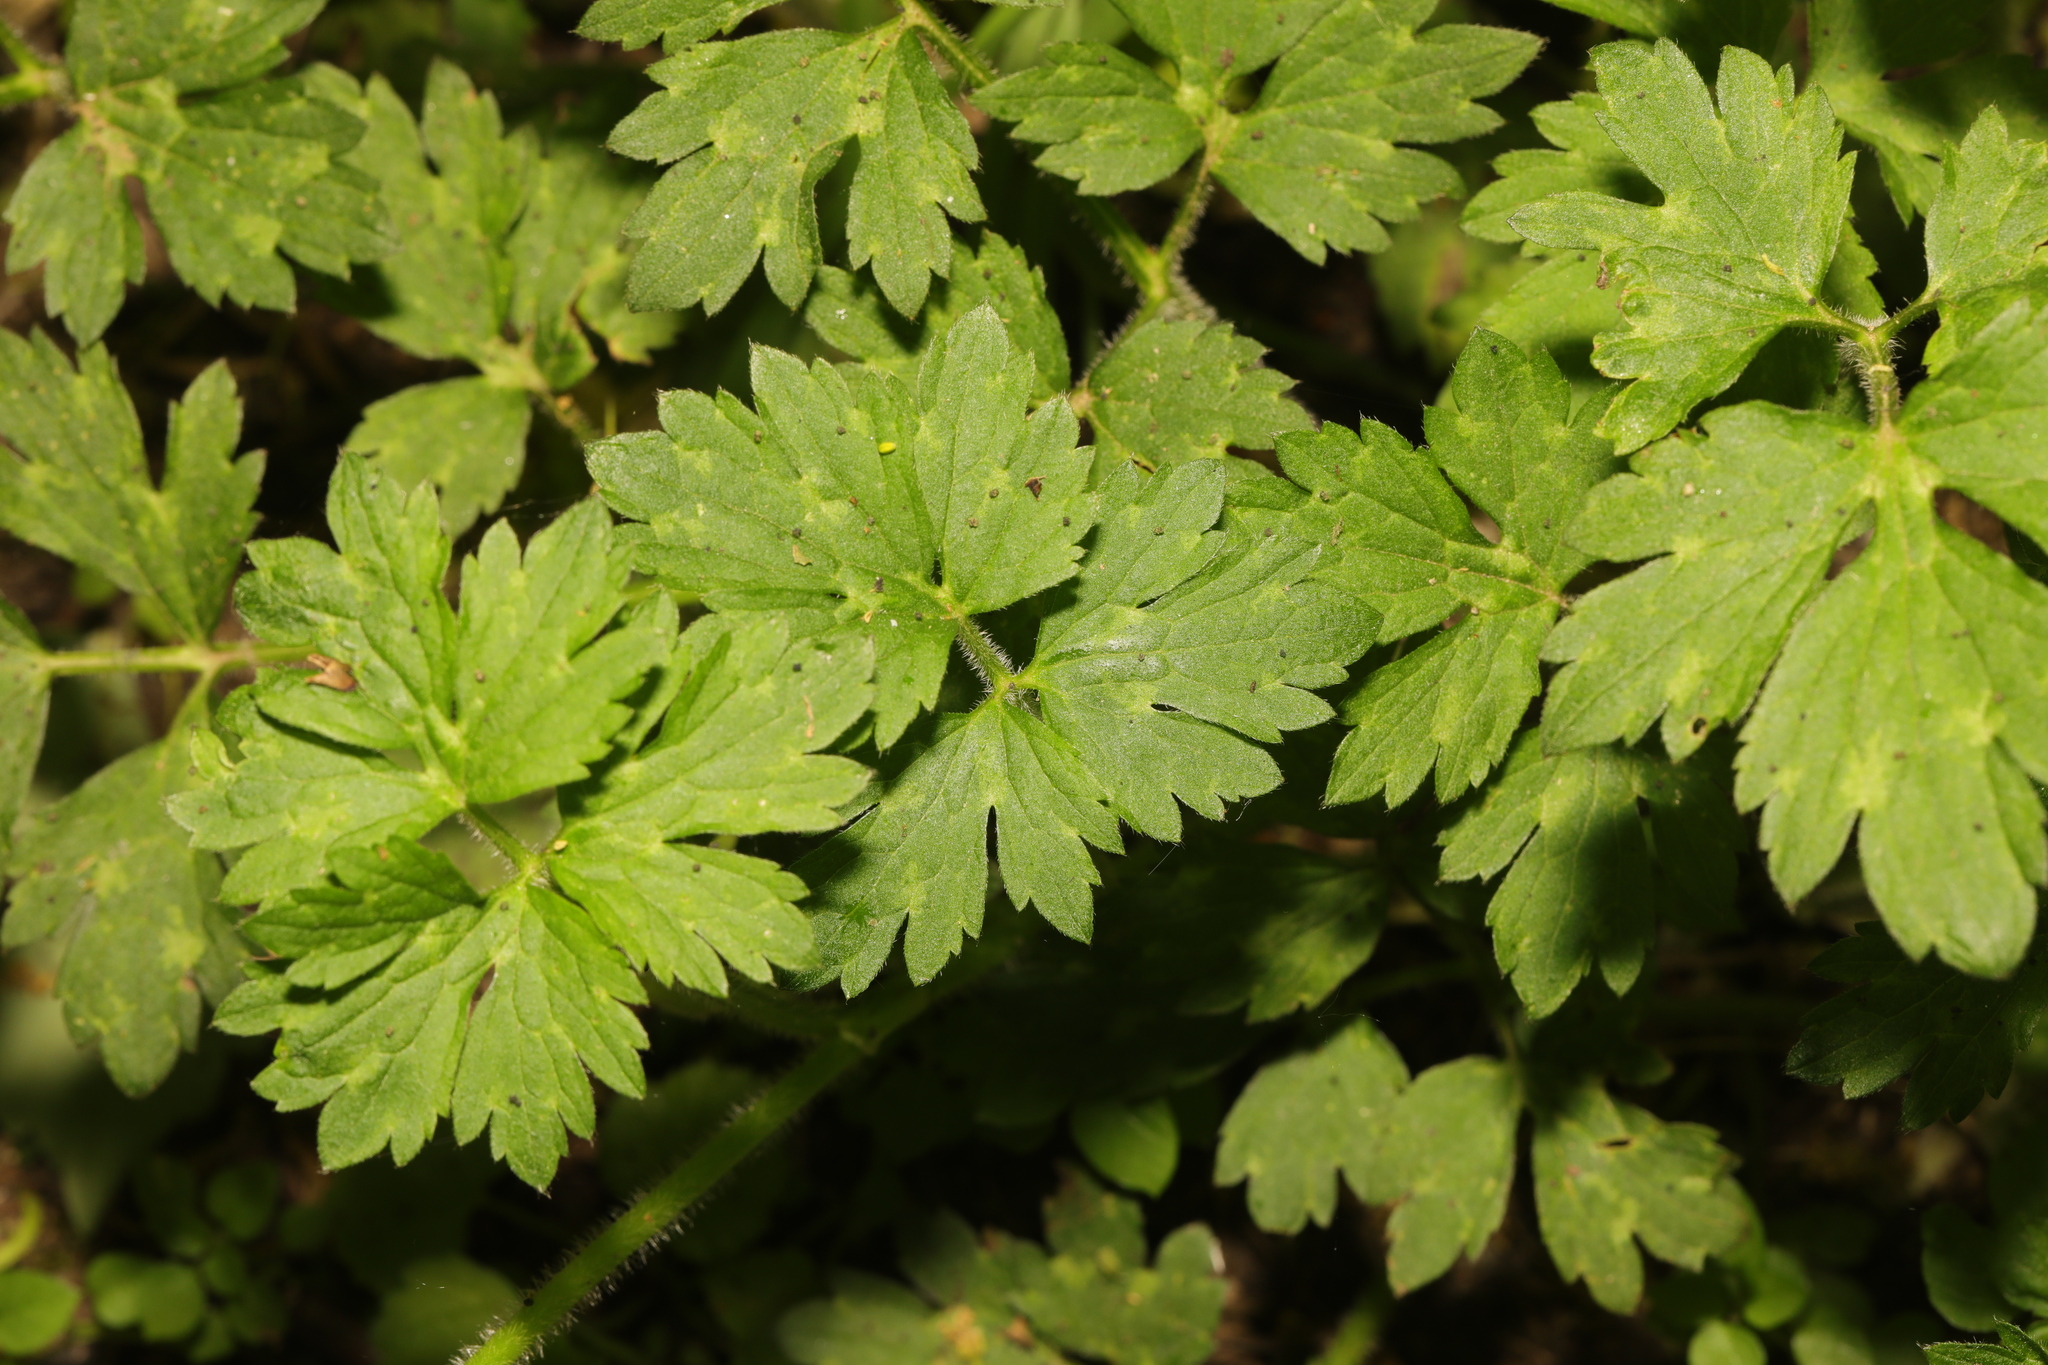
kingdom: Plantae
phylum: Tracheophyta
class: Magnoliopsida
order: Ranunculales
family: Ranunculaceae
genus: Ranunculus
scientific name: Ranunculus repens
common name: Creeping buttercup
